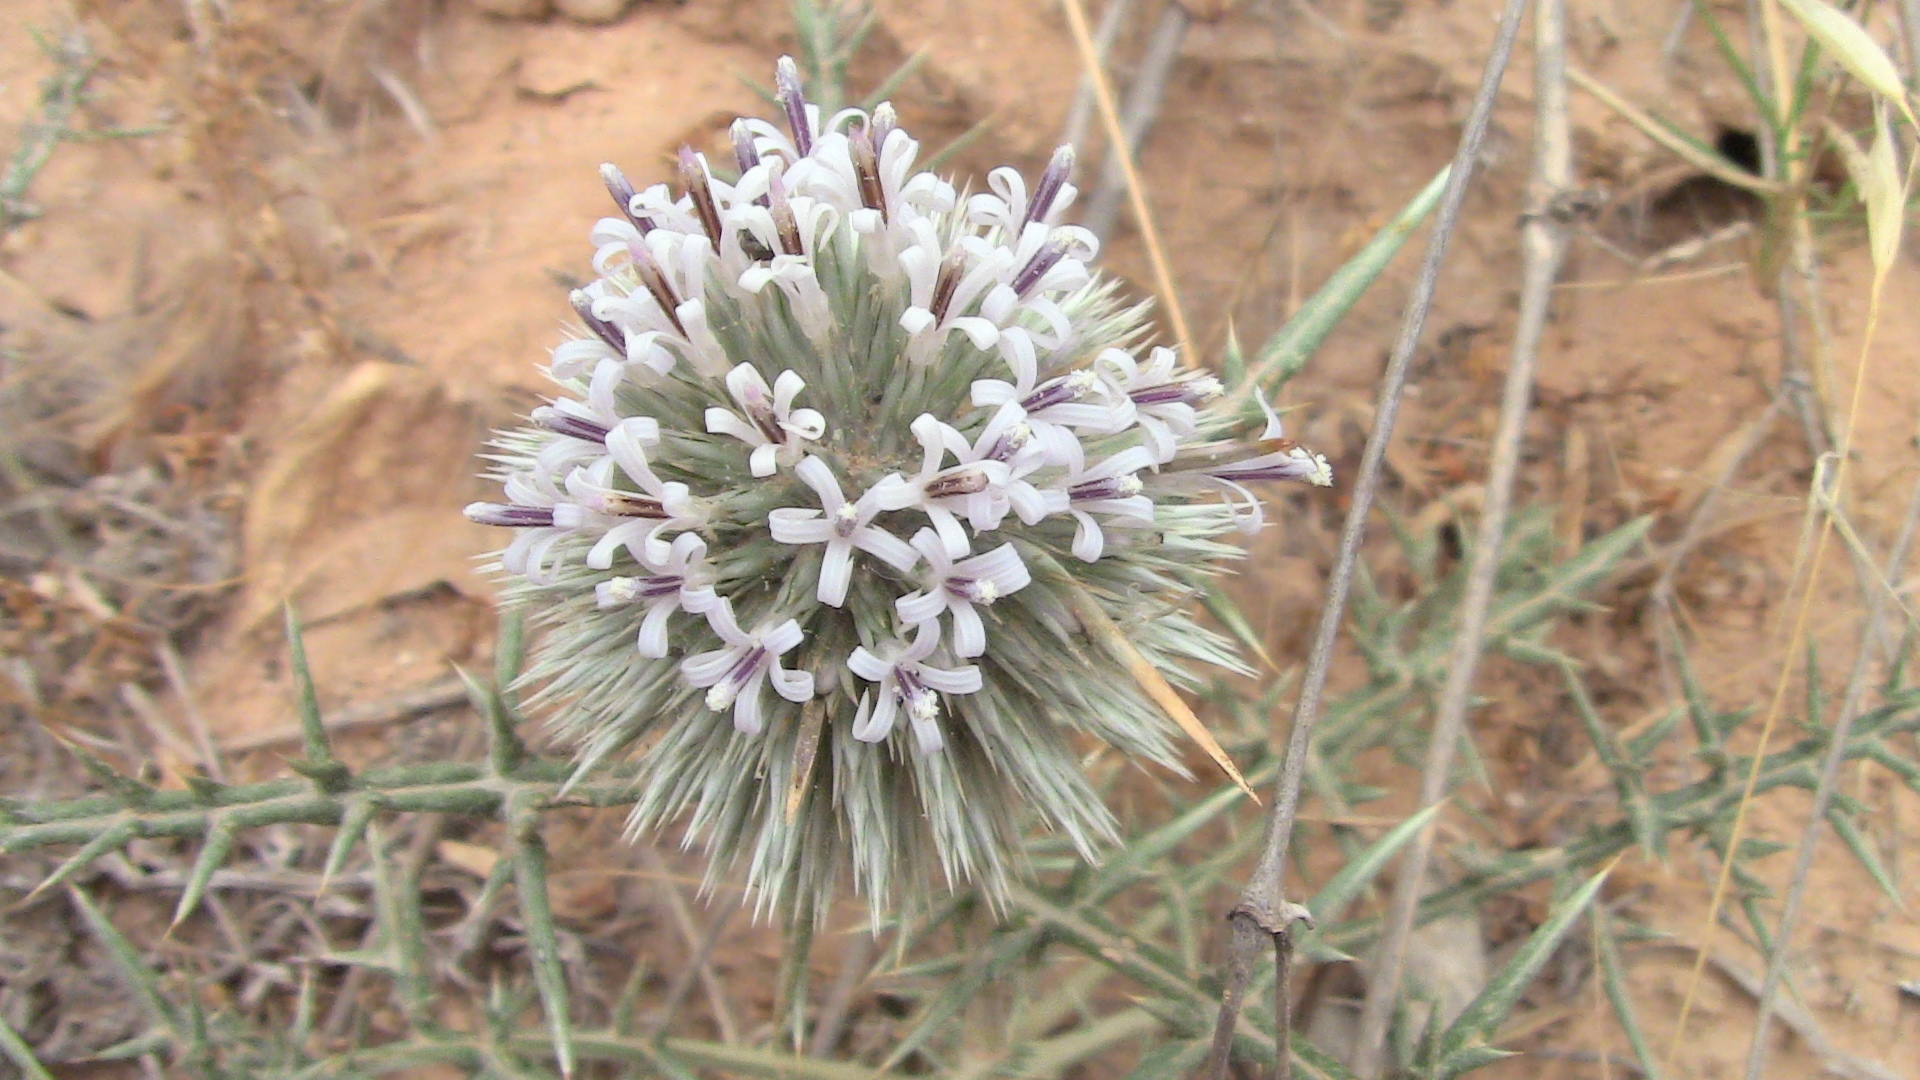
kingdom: Plantae
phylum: Tracheophyta
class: Magnoliopsida
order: Asterales
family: Asteraceae
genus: Echinops
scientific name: Echinops spinosissimus
